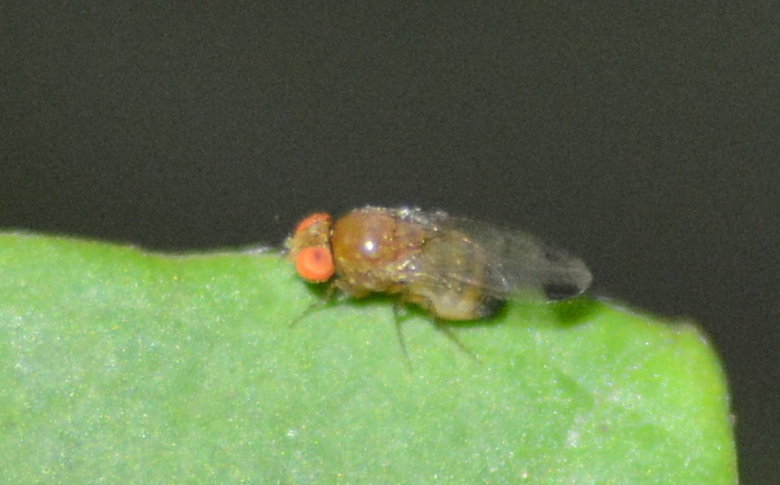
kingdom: Animalia
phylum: Arthropoda
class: Insecta
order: Diptera
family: Drosophilidae
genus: Drosophila
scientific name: Drosophila suzukii
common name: Spotted-wing drosophila
